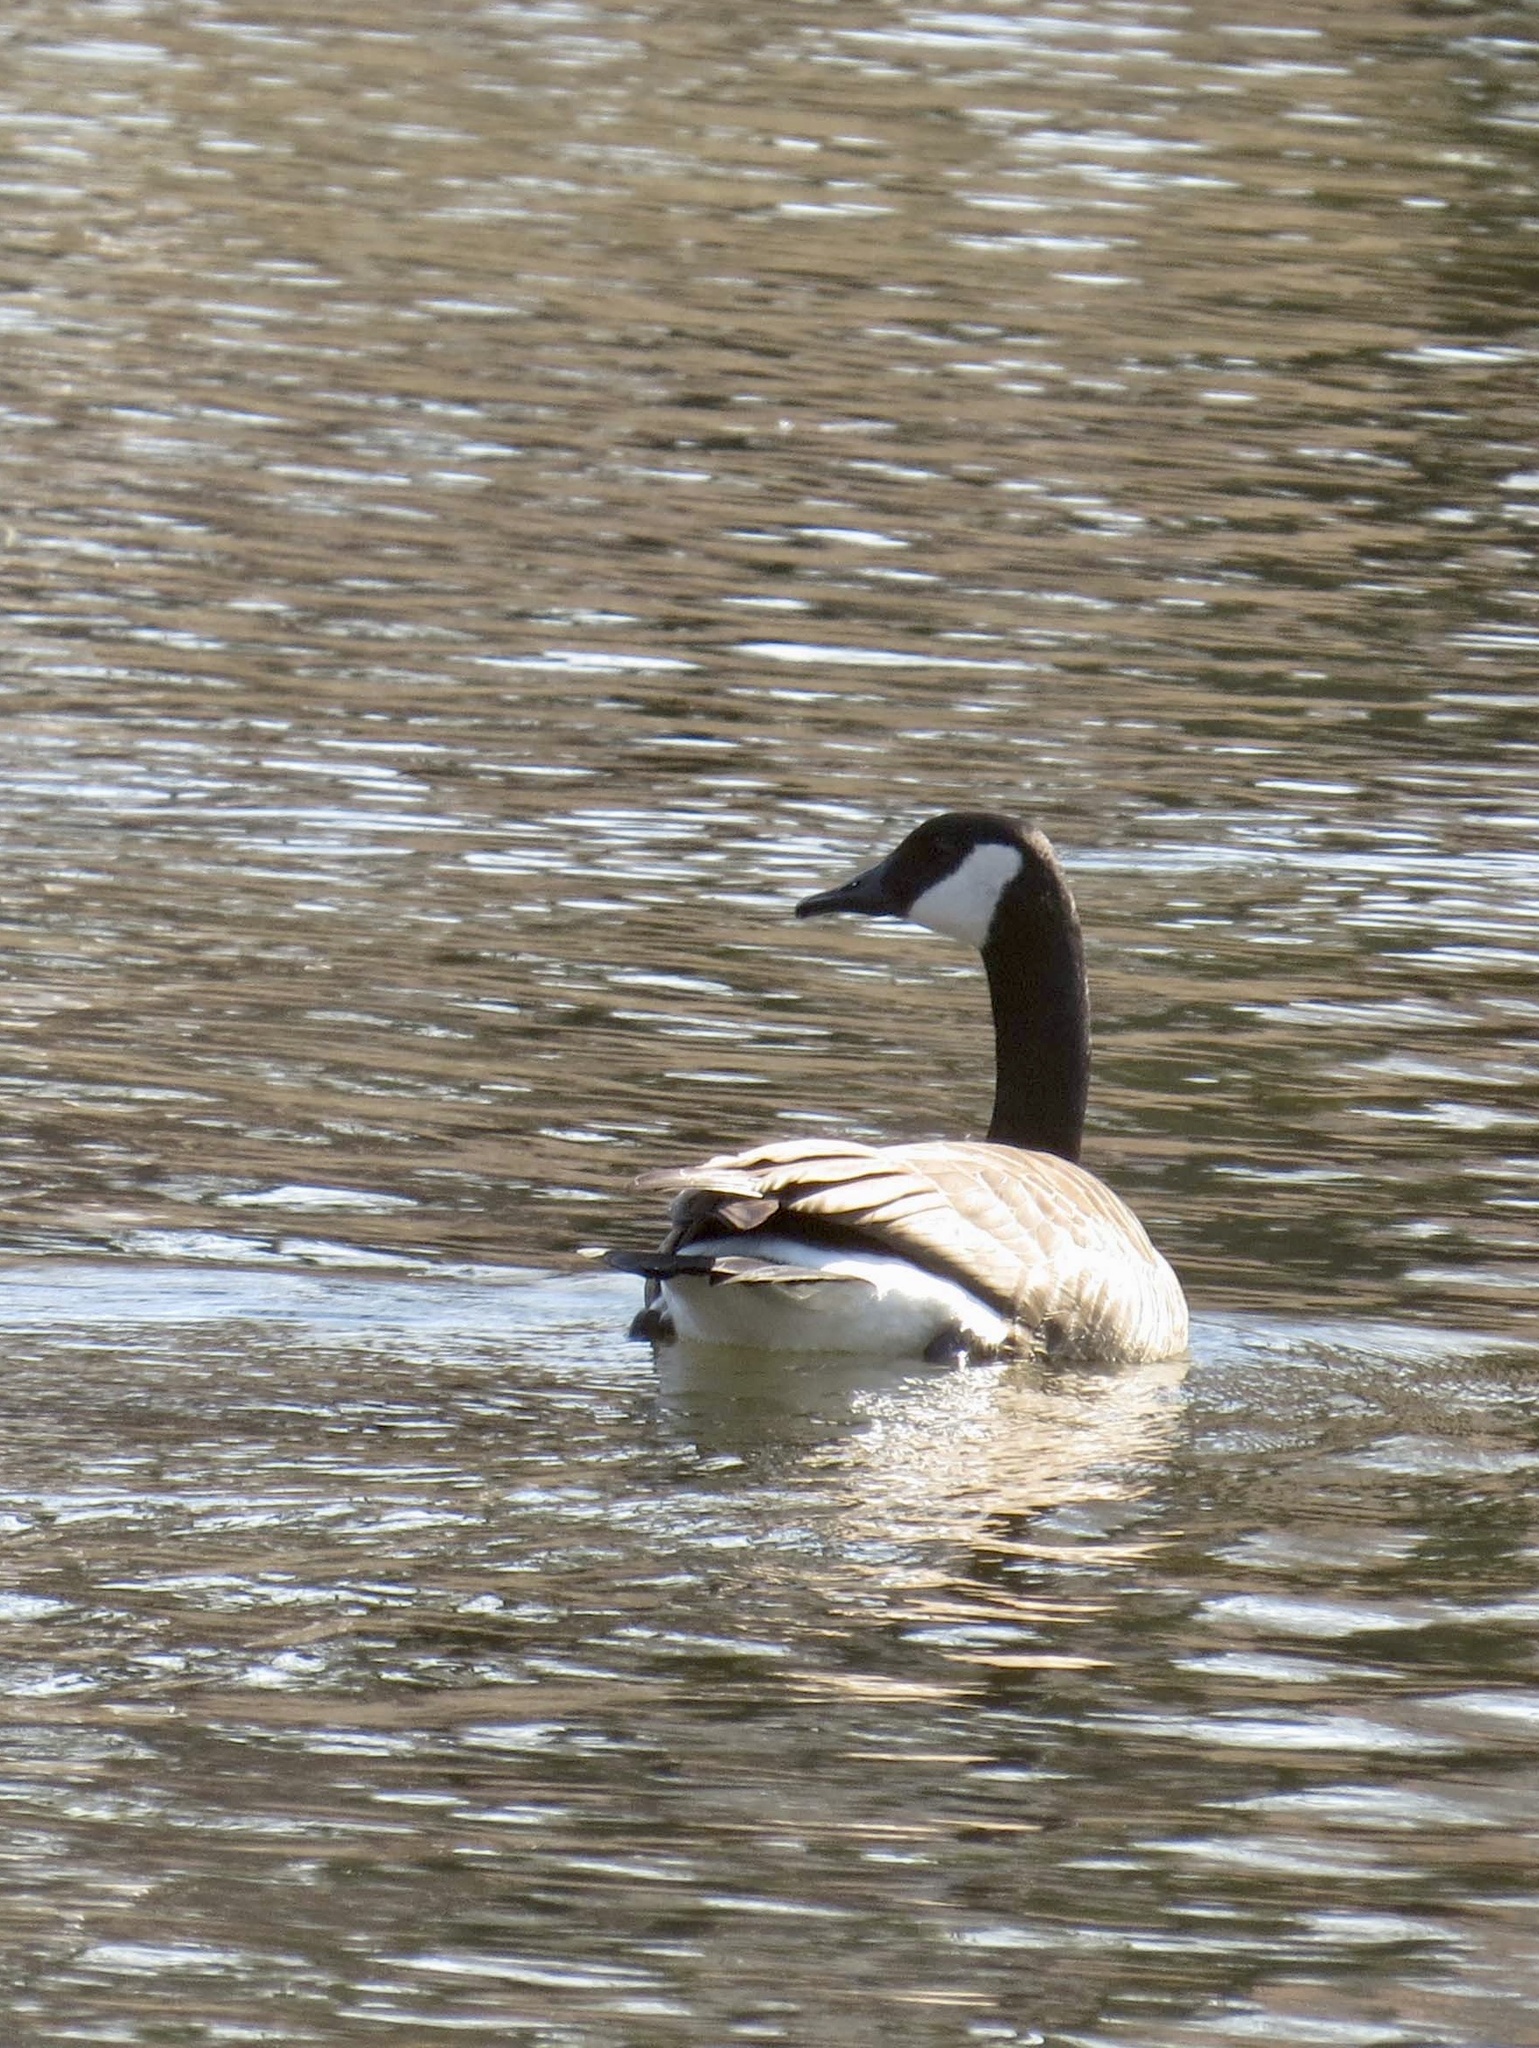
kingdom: Animalia
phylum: Chordata
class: Aves
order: Anseriformes
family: Anatidae
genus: Branta
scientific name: Branta canadensis
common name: Canada goose
